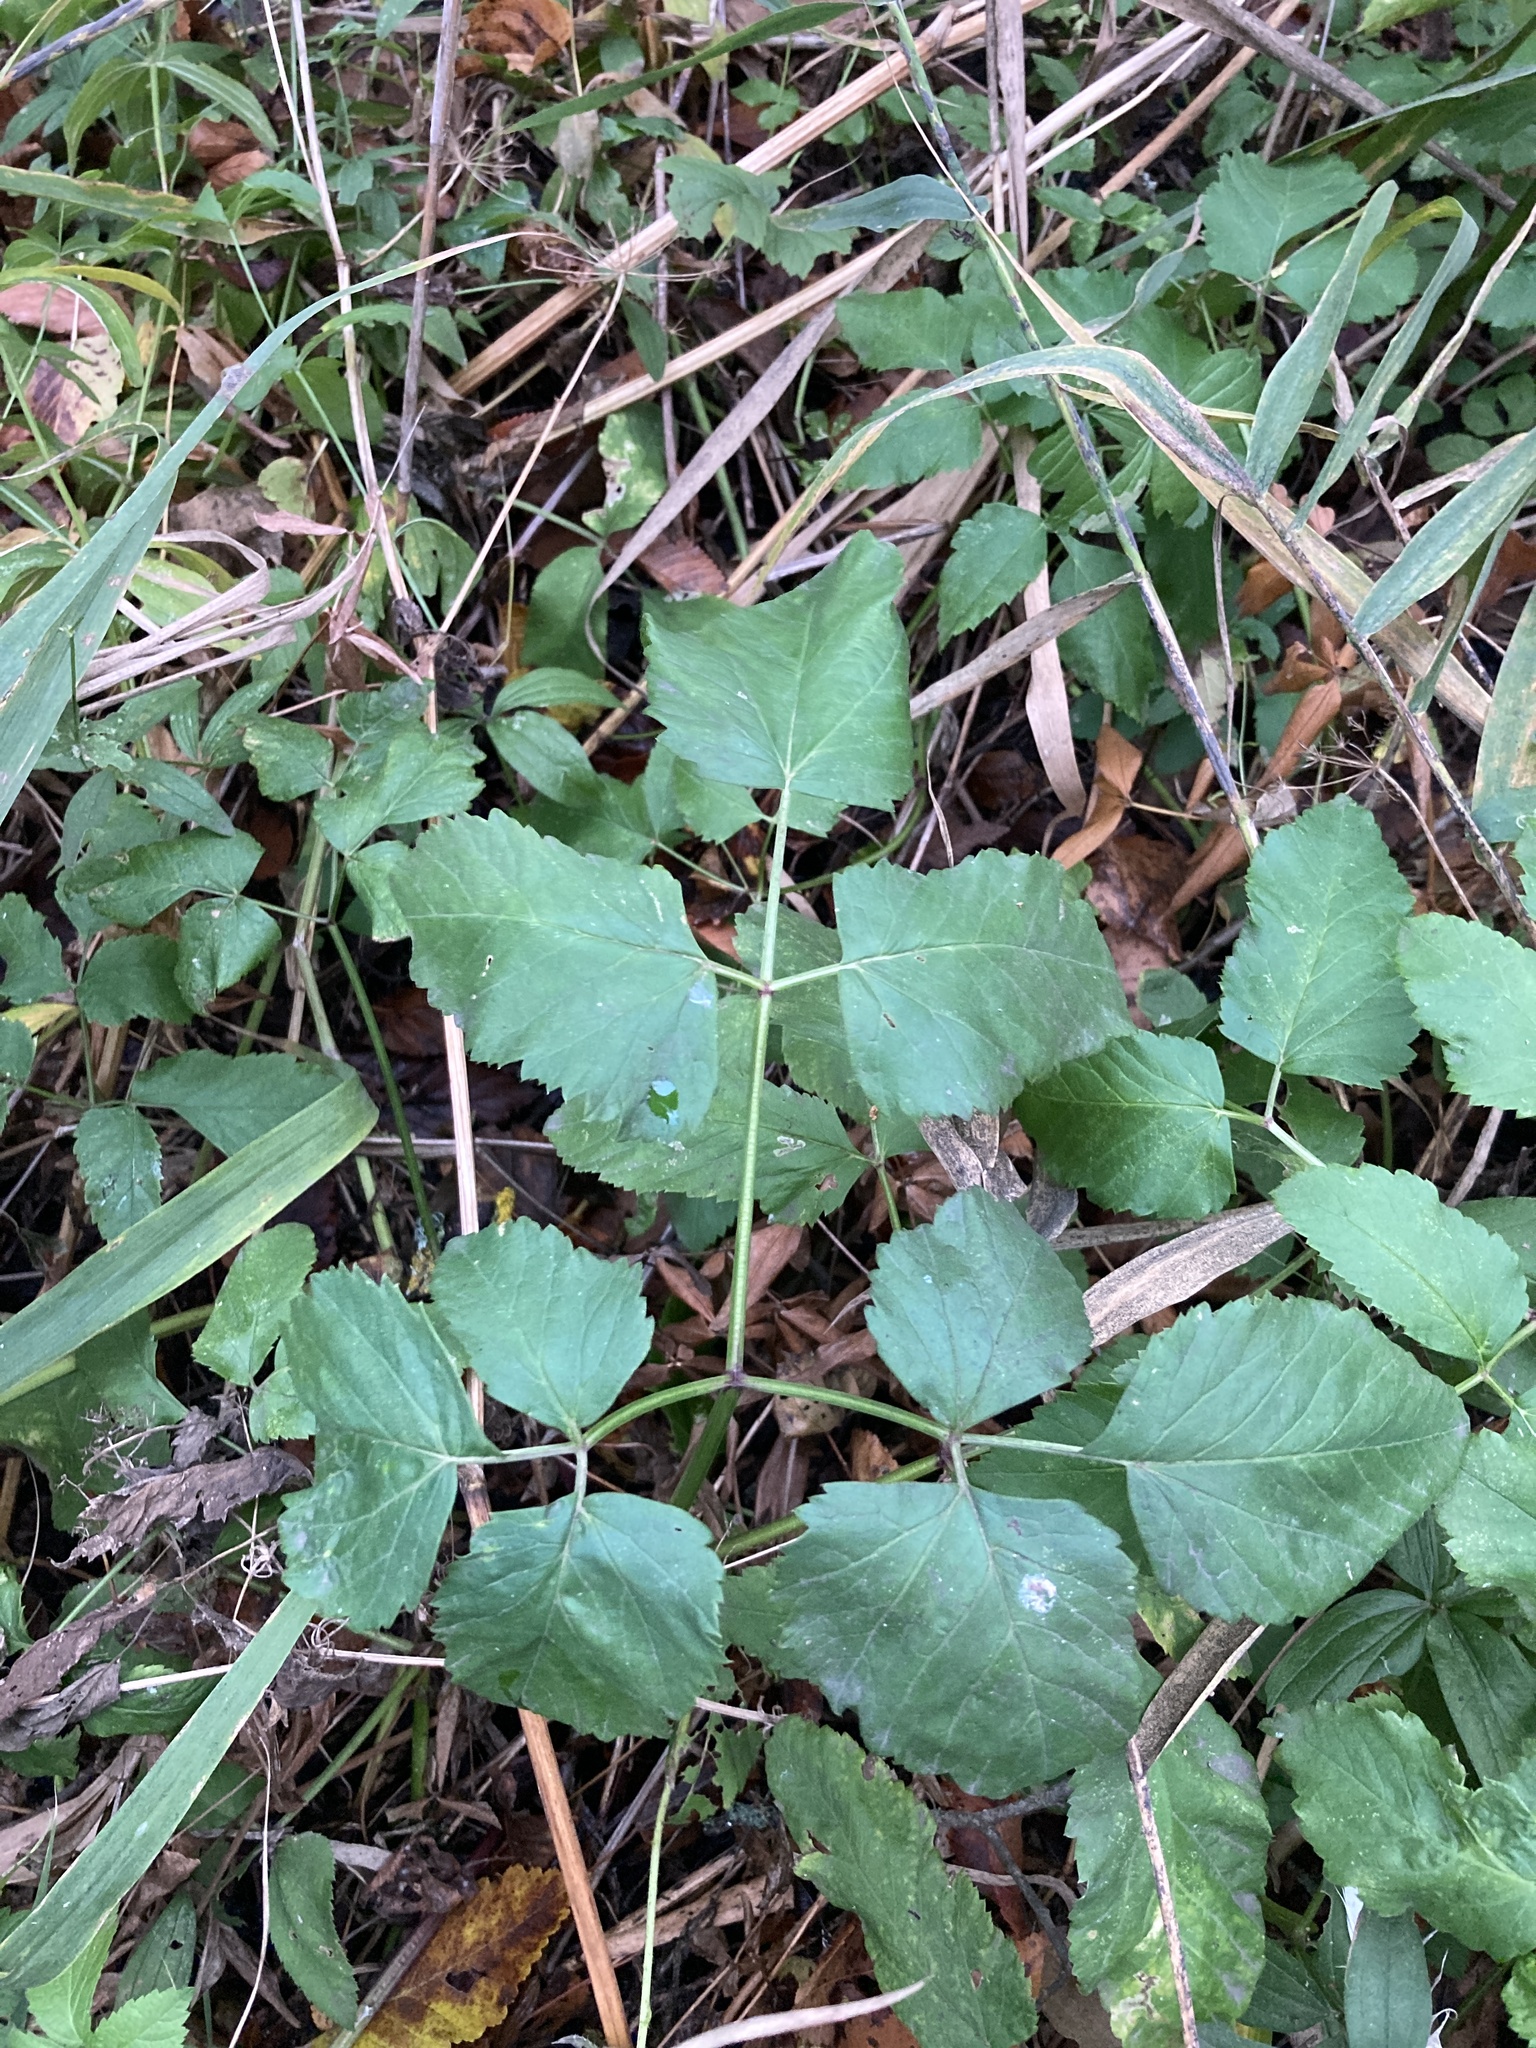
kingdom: Plantae
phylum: Tracheophyta
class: Magnoliopsida
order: Apiales
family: Apiaceae
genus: Aegopodium
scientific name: Aegopodium podagraria
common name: Ground-elder
